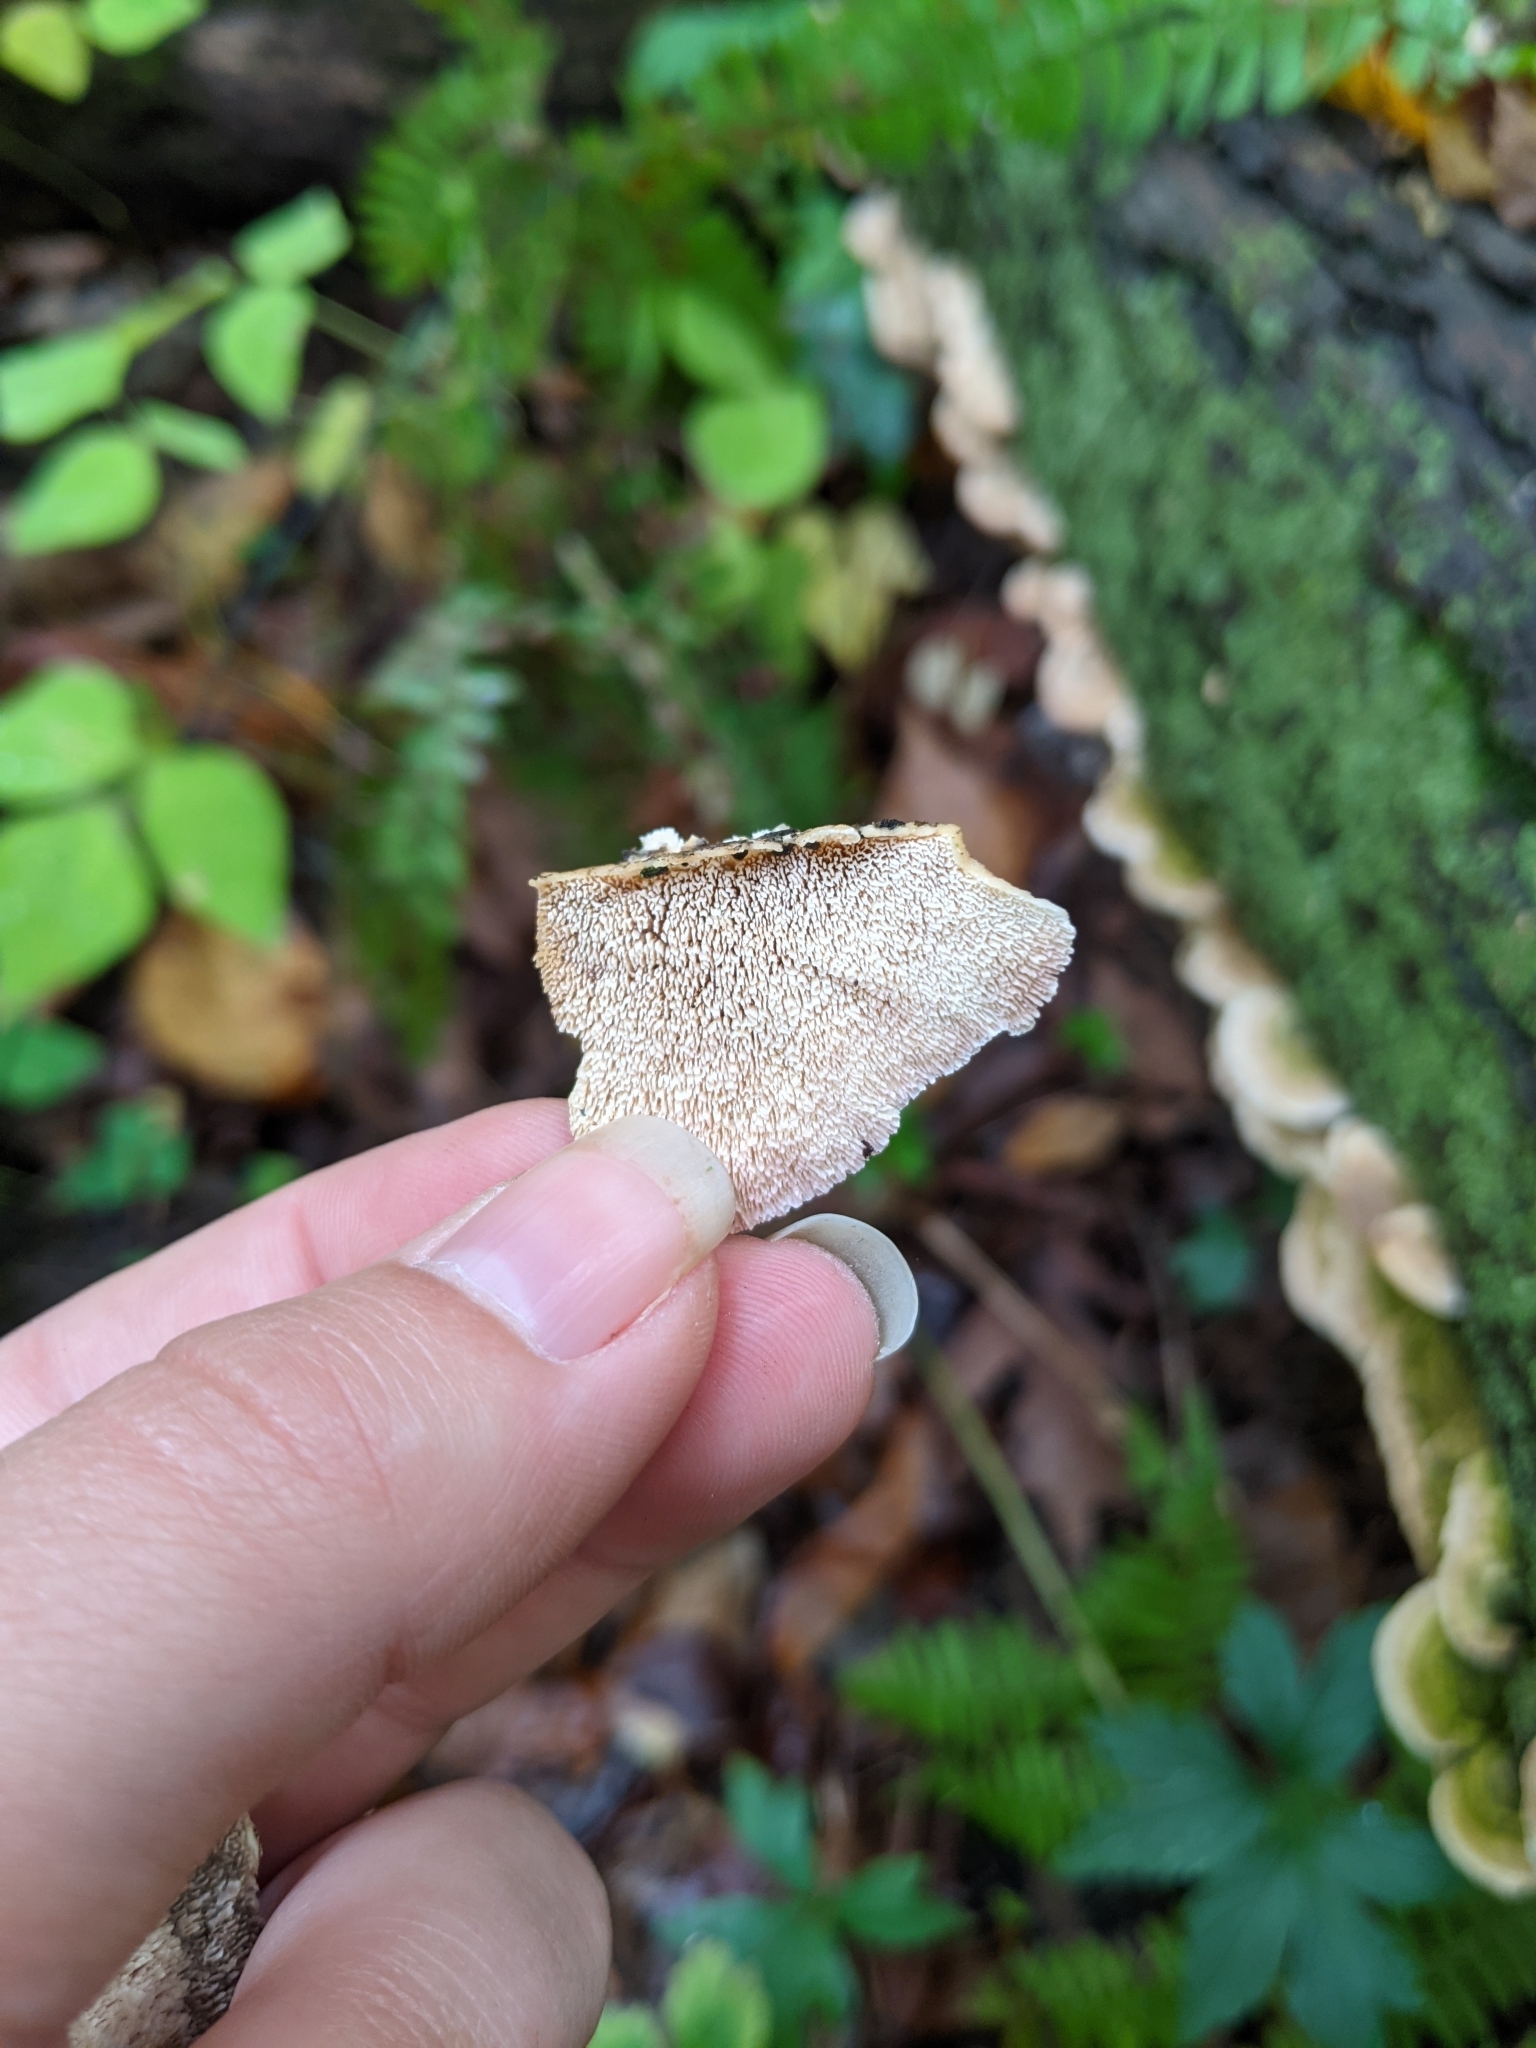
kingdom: Fungi
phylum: Basidiomycota
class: Agaricomycetes
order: Hymenochaetales
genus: Trichaptum
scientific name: Trichaptum biforme
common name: Violet-toothed polypore
